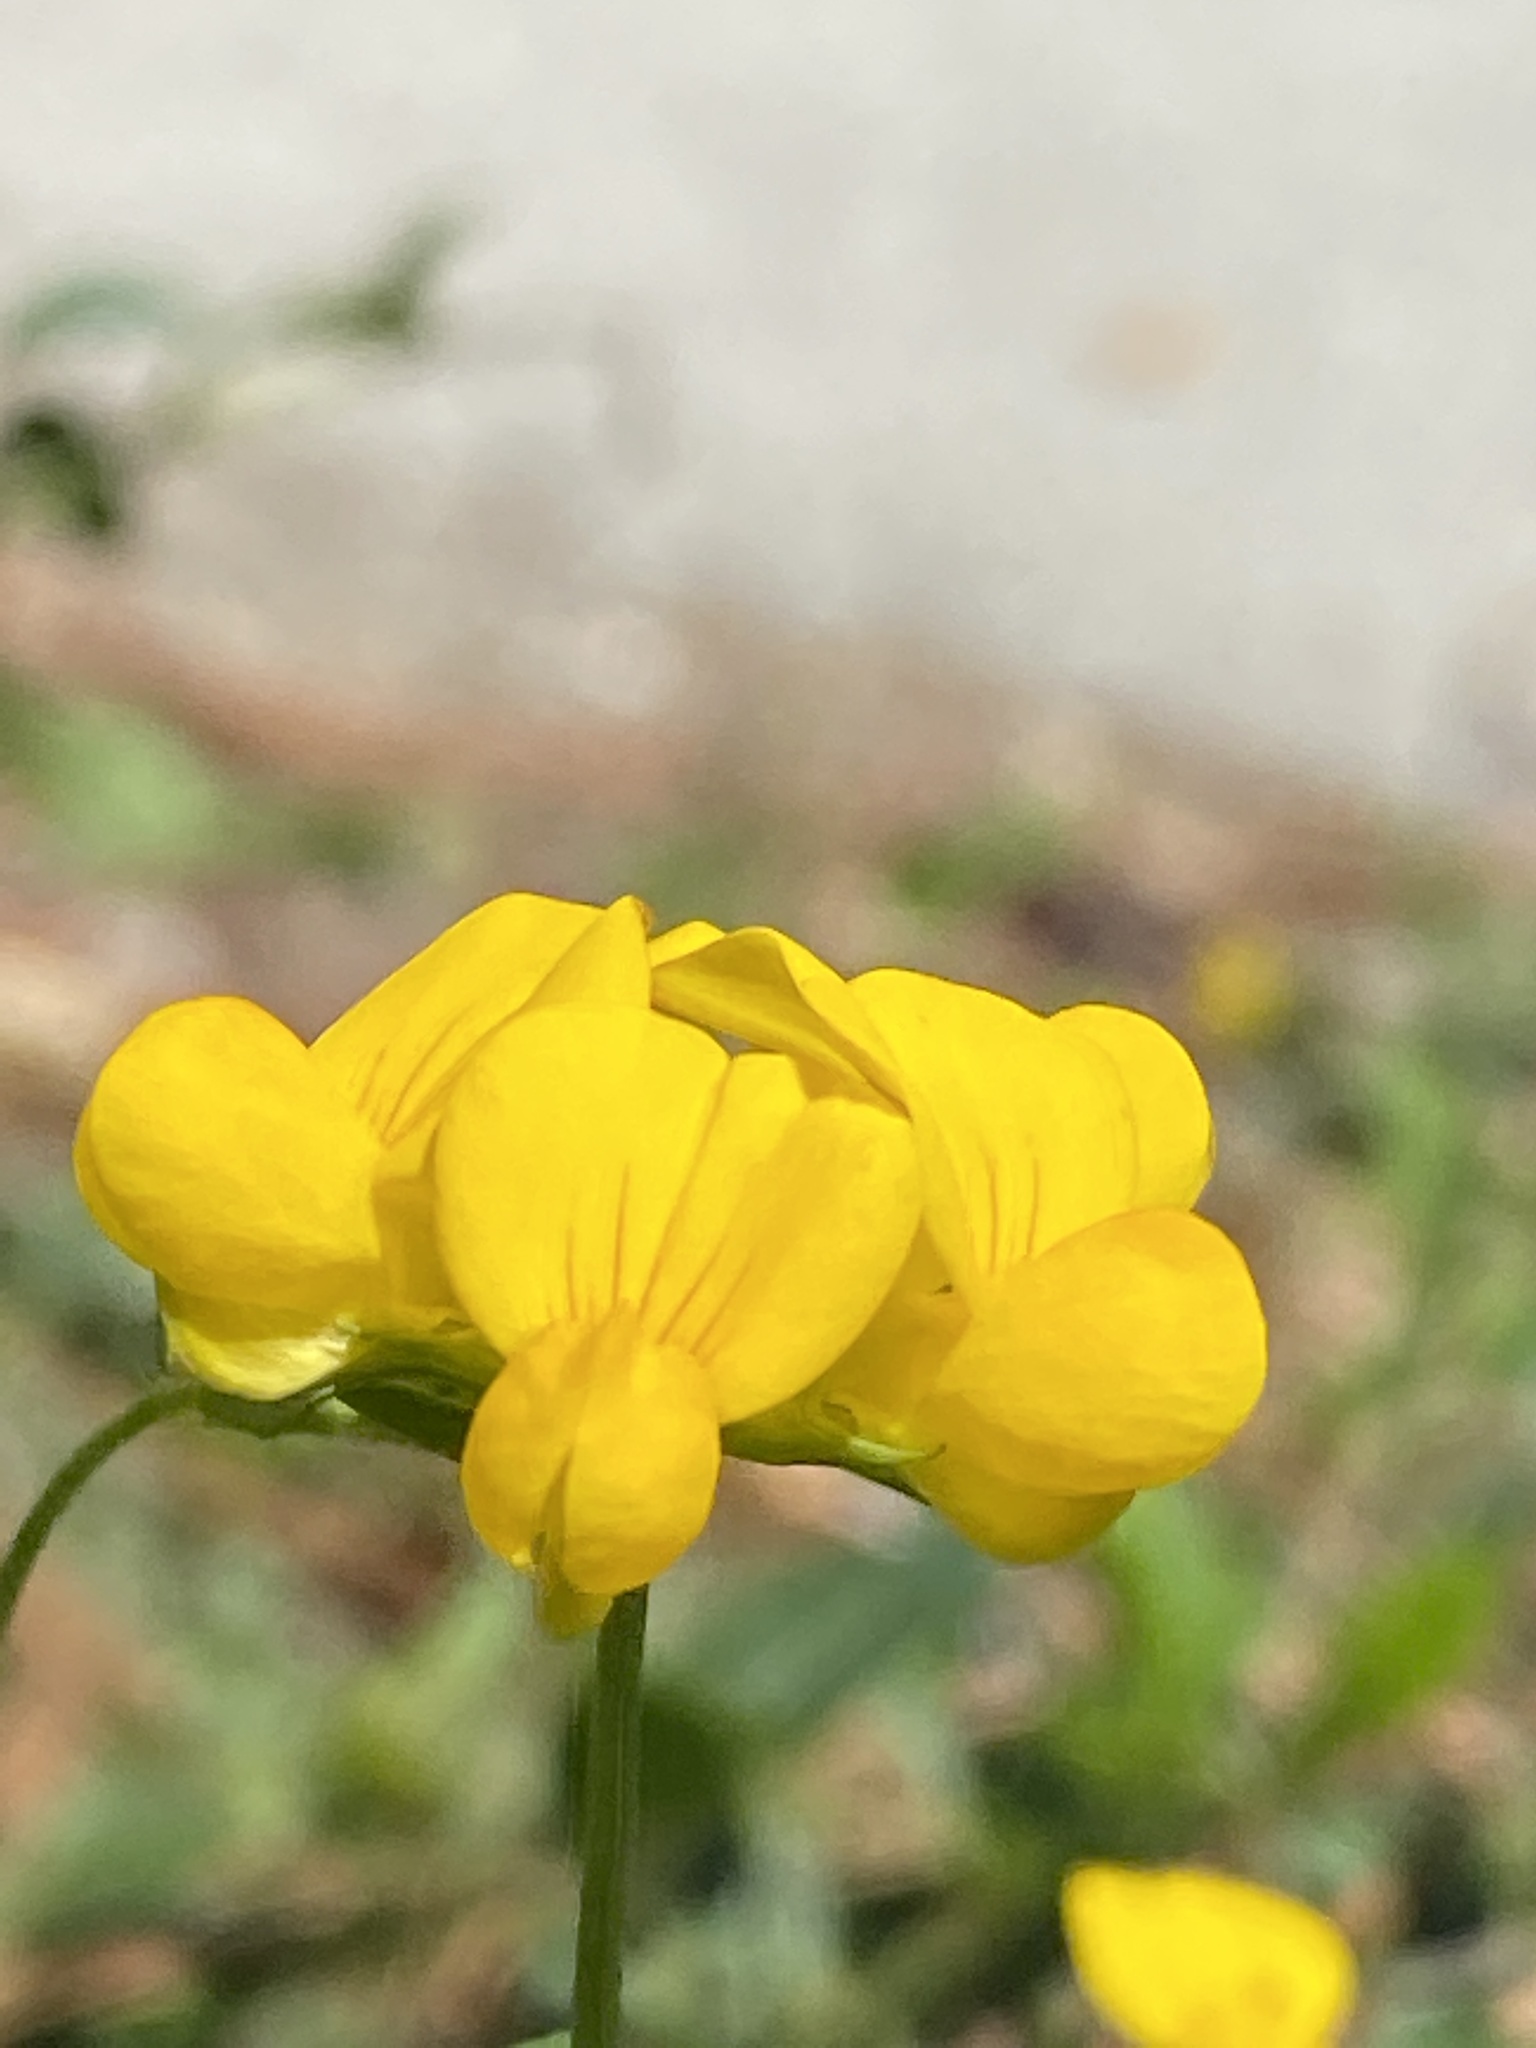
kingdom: Plantae
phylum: Tracheophyta
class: Magnoliopsida
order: Fabales
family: Fabaceae
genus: Lotus
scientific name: Lotus corniculatus
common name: Common bird's-foot-trefoil
